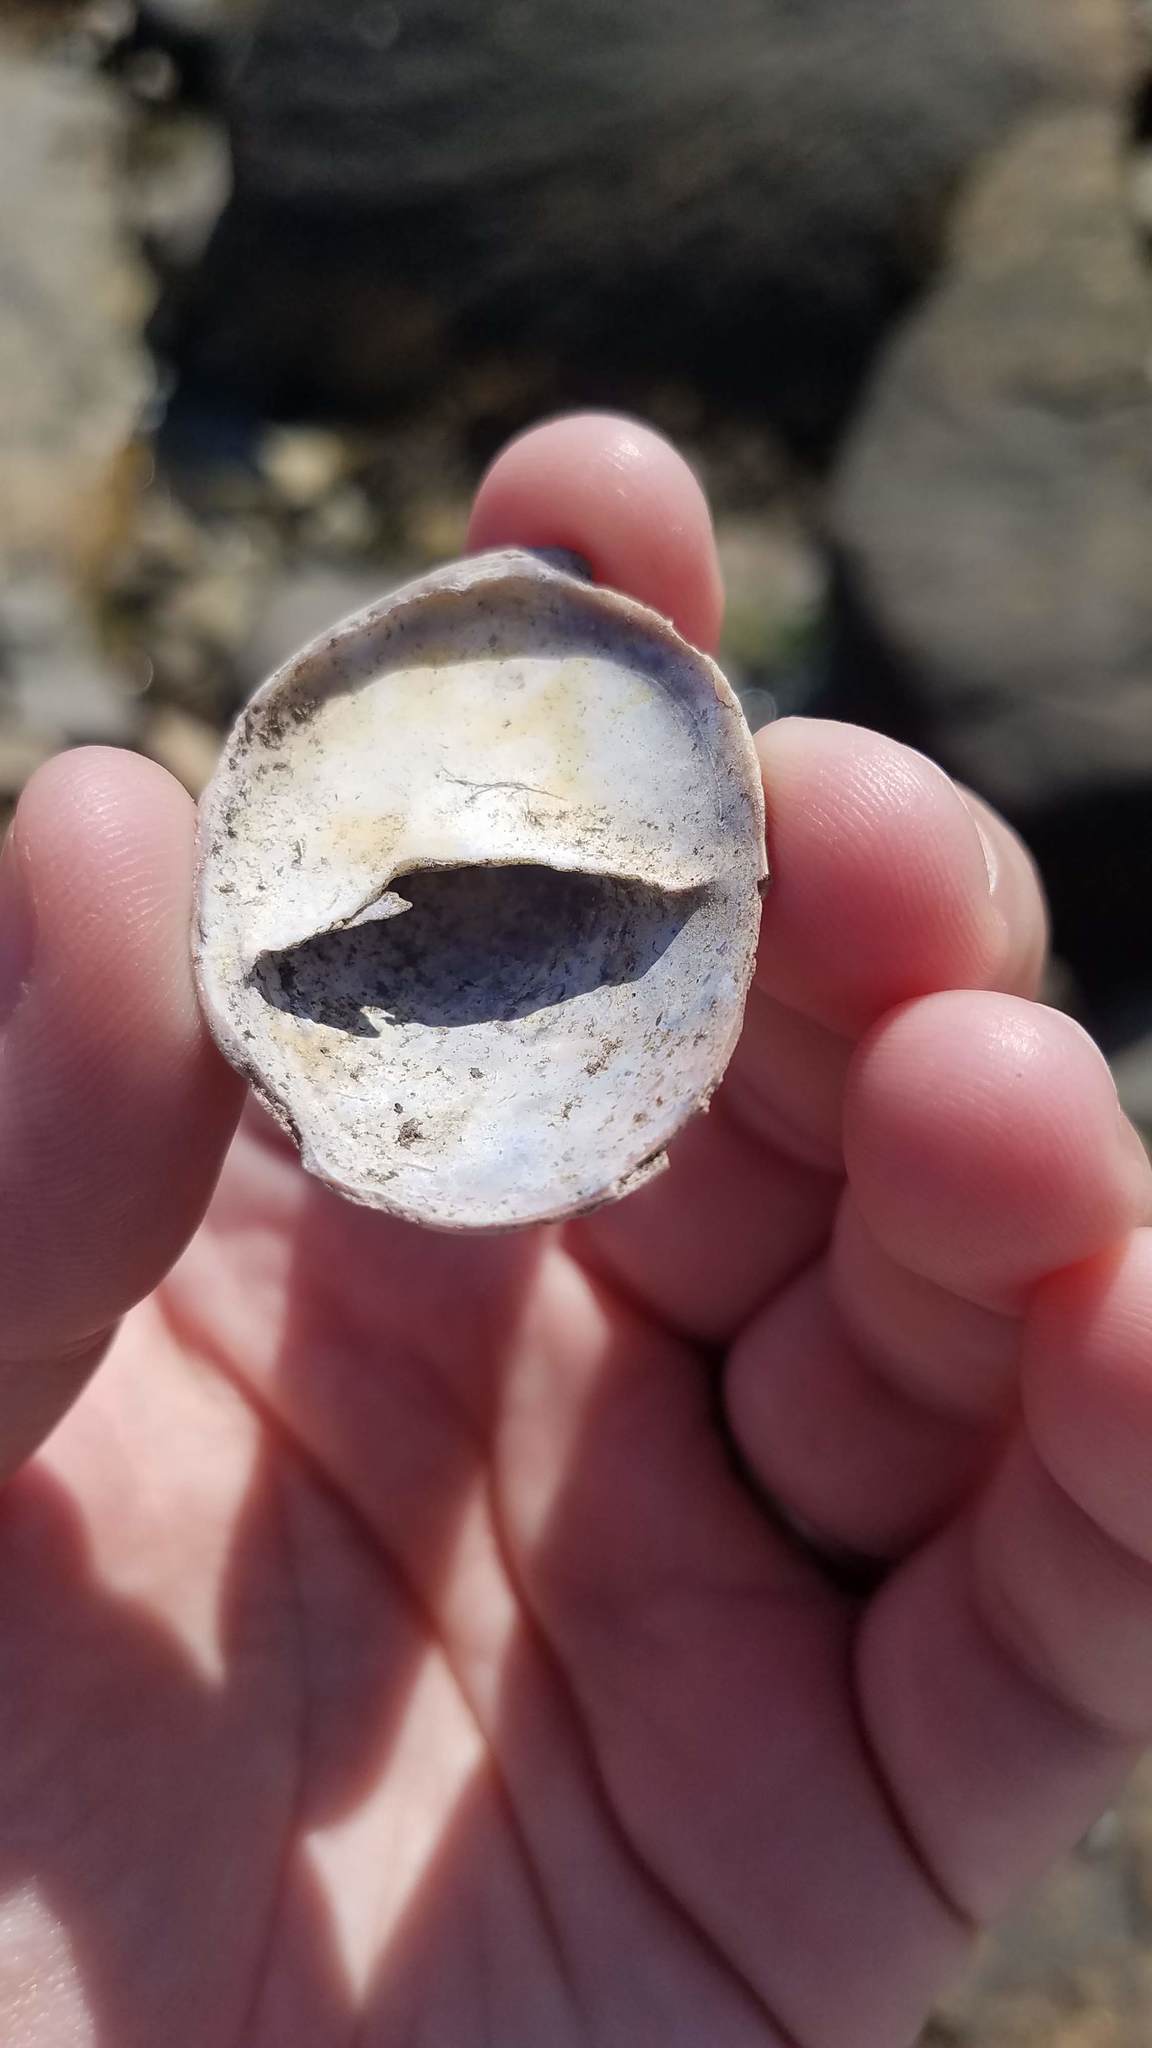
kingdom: Animalia
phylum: Mollusca
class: Gastropoda
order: Littorinimorpha
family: Calyptraeidae
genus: Crepidula
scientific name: Crepidula fornicata
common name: Slipper limpet
